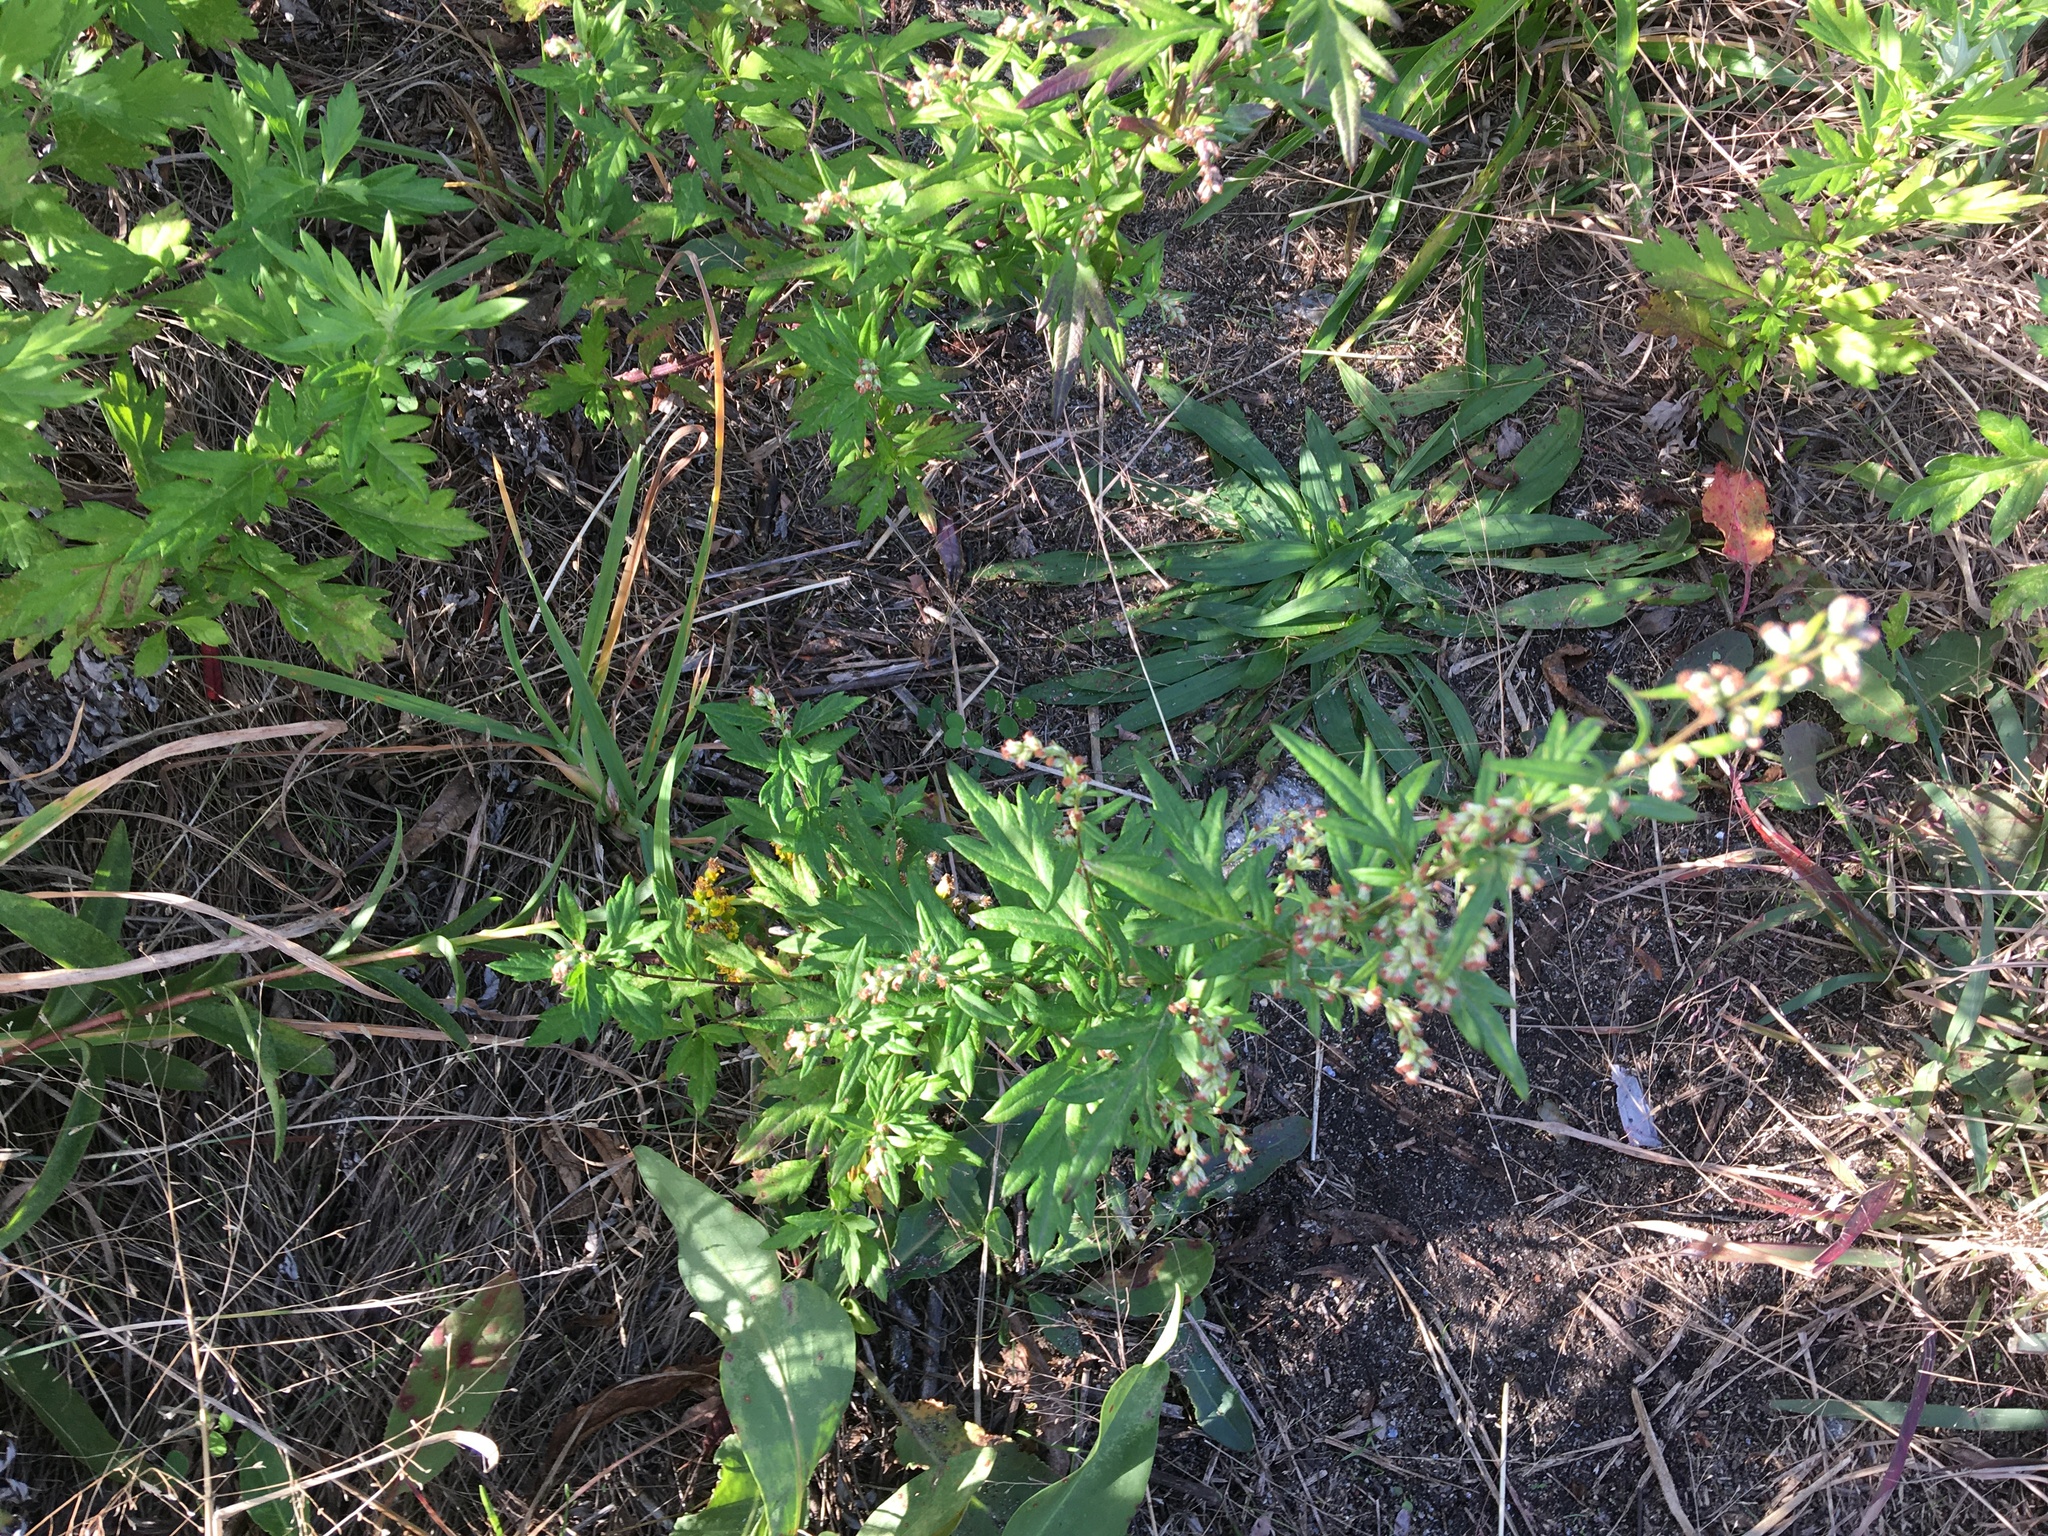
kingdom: Plantae
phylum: Tracheophyta
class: Magnoliopsida
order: Asterales
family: Asteraceae
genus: Artemisia
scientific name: Artemisia vulgaris
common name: Mugwort
